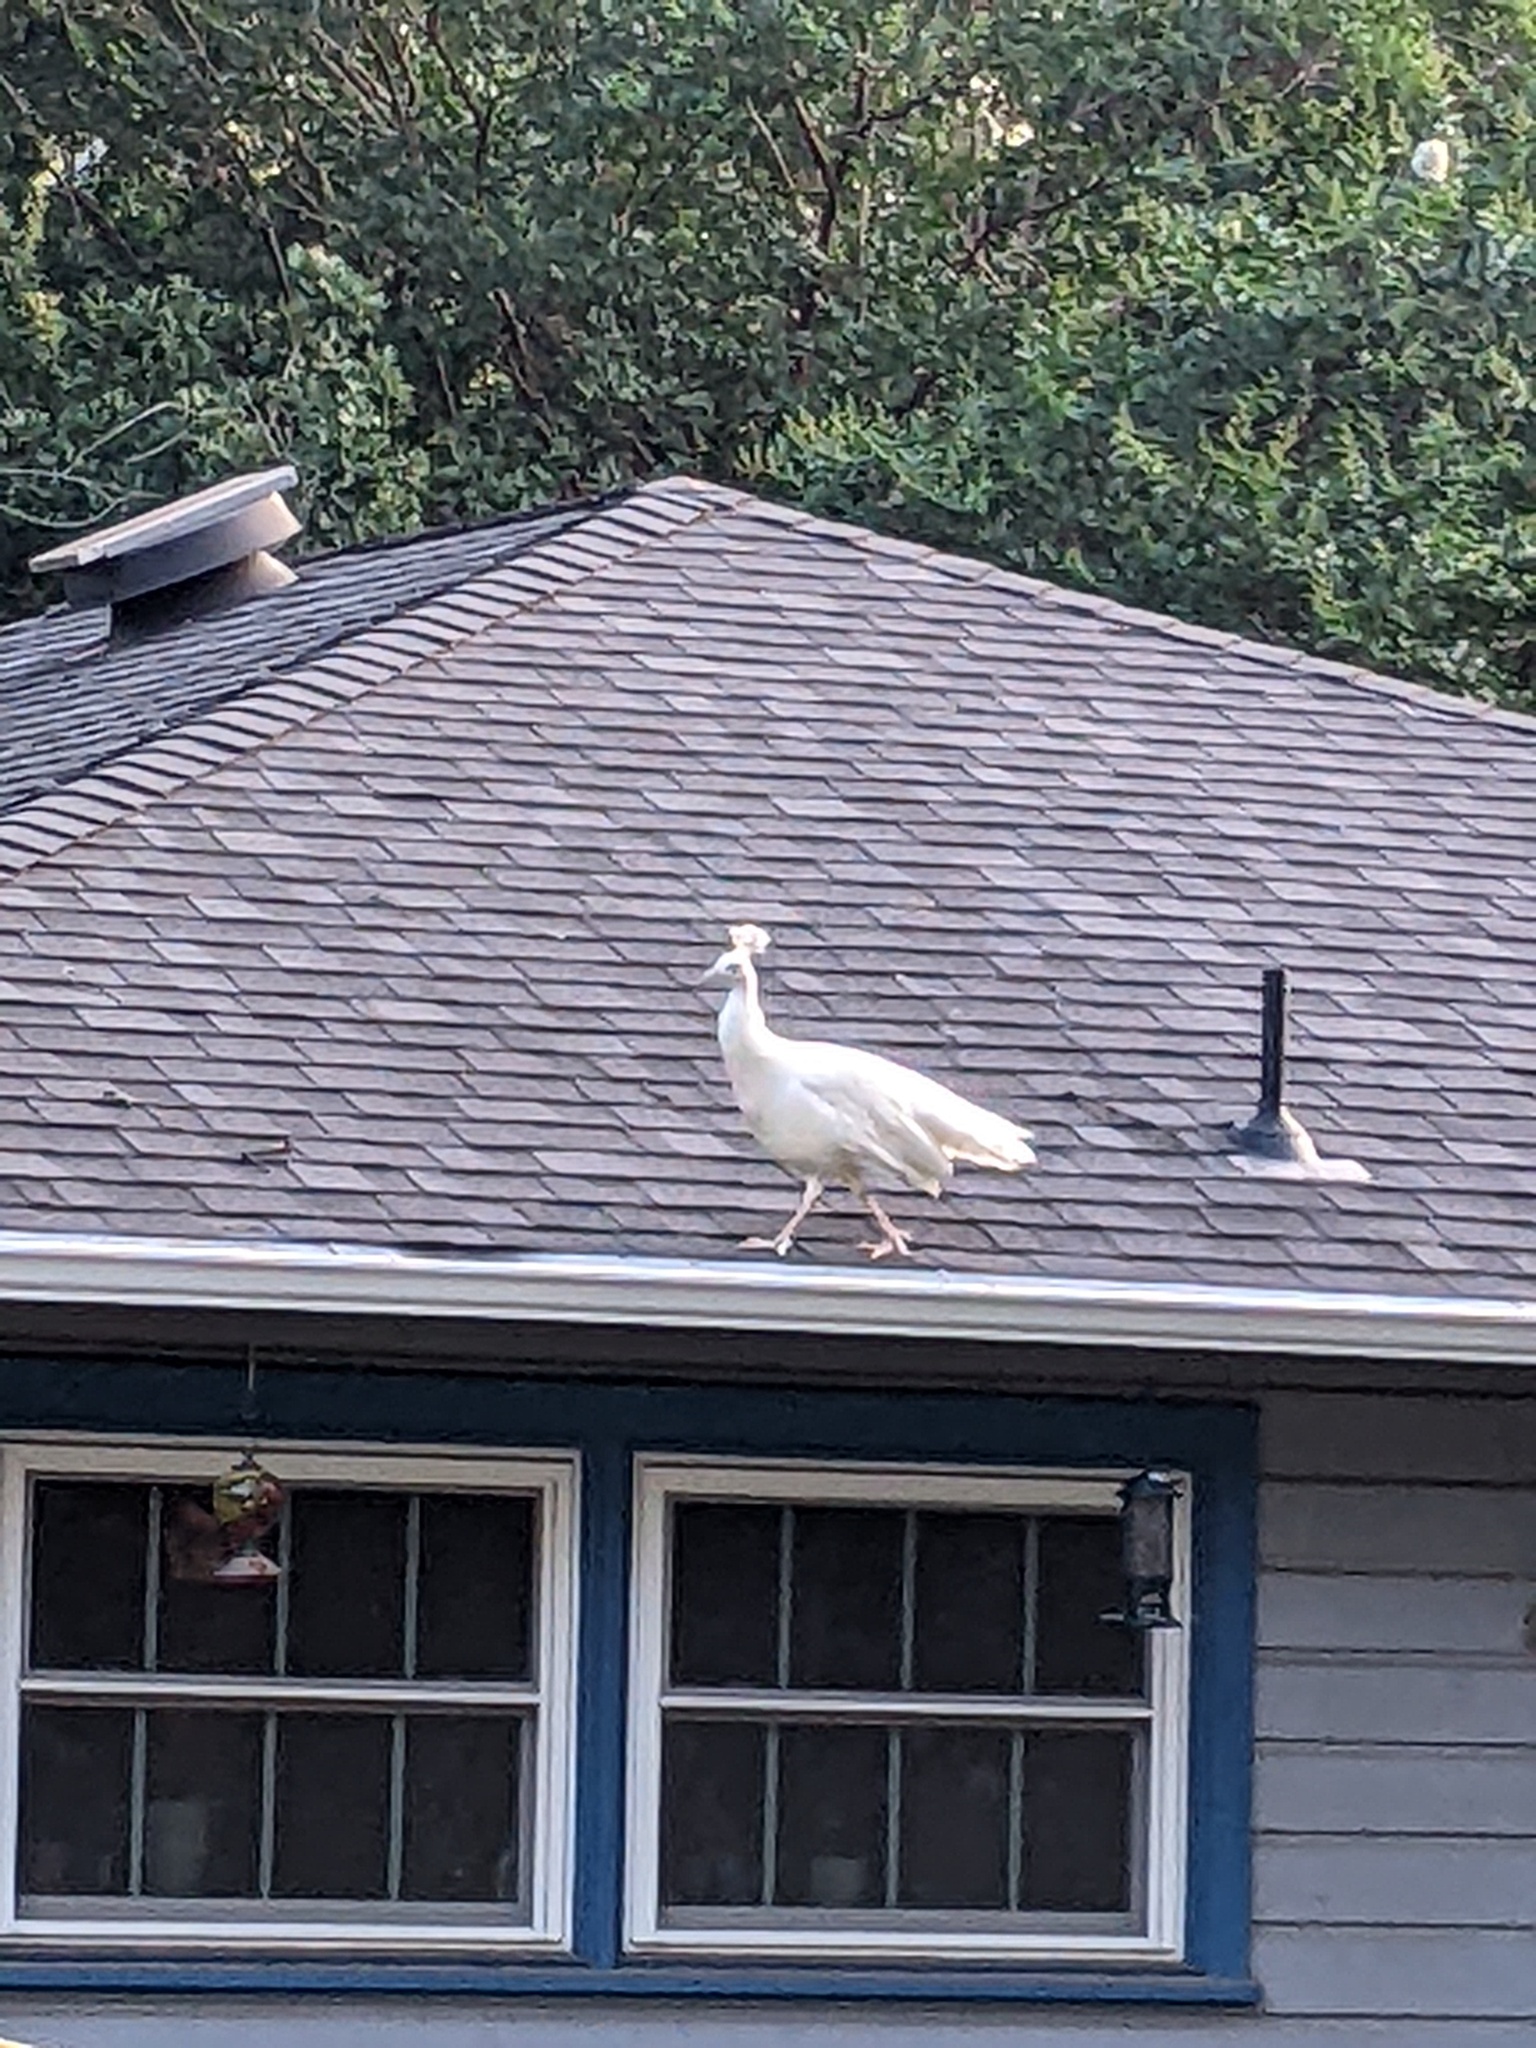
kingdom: Animalia
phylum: Chordata
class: Aves
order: Galliformes
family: Phasianidae
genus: Pavo
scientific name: Pavo cristatus
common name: Indian peafowl
